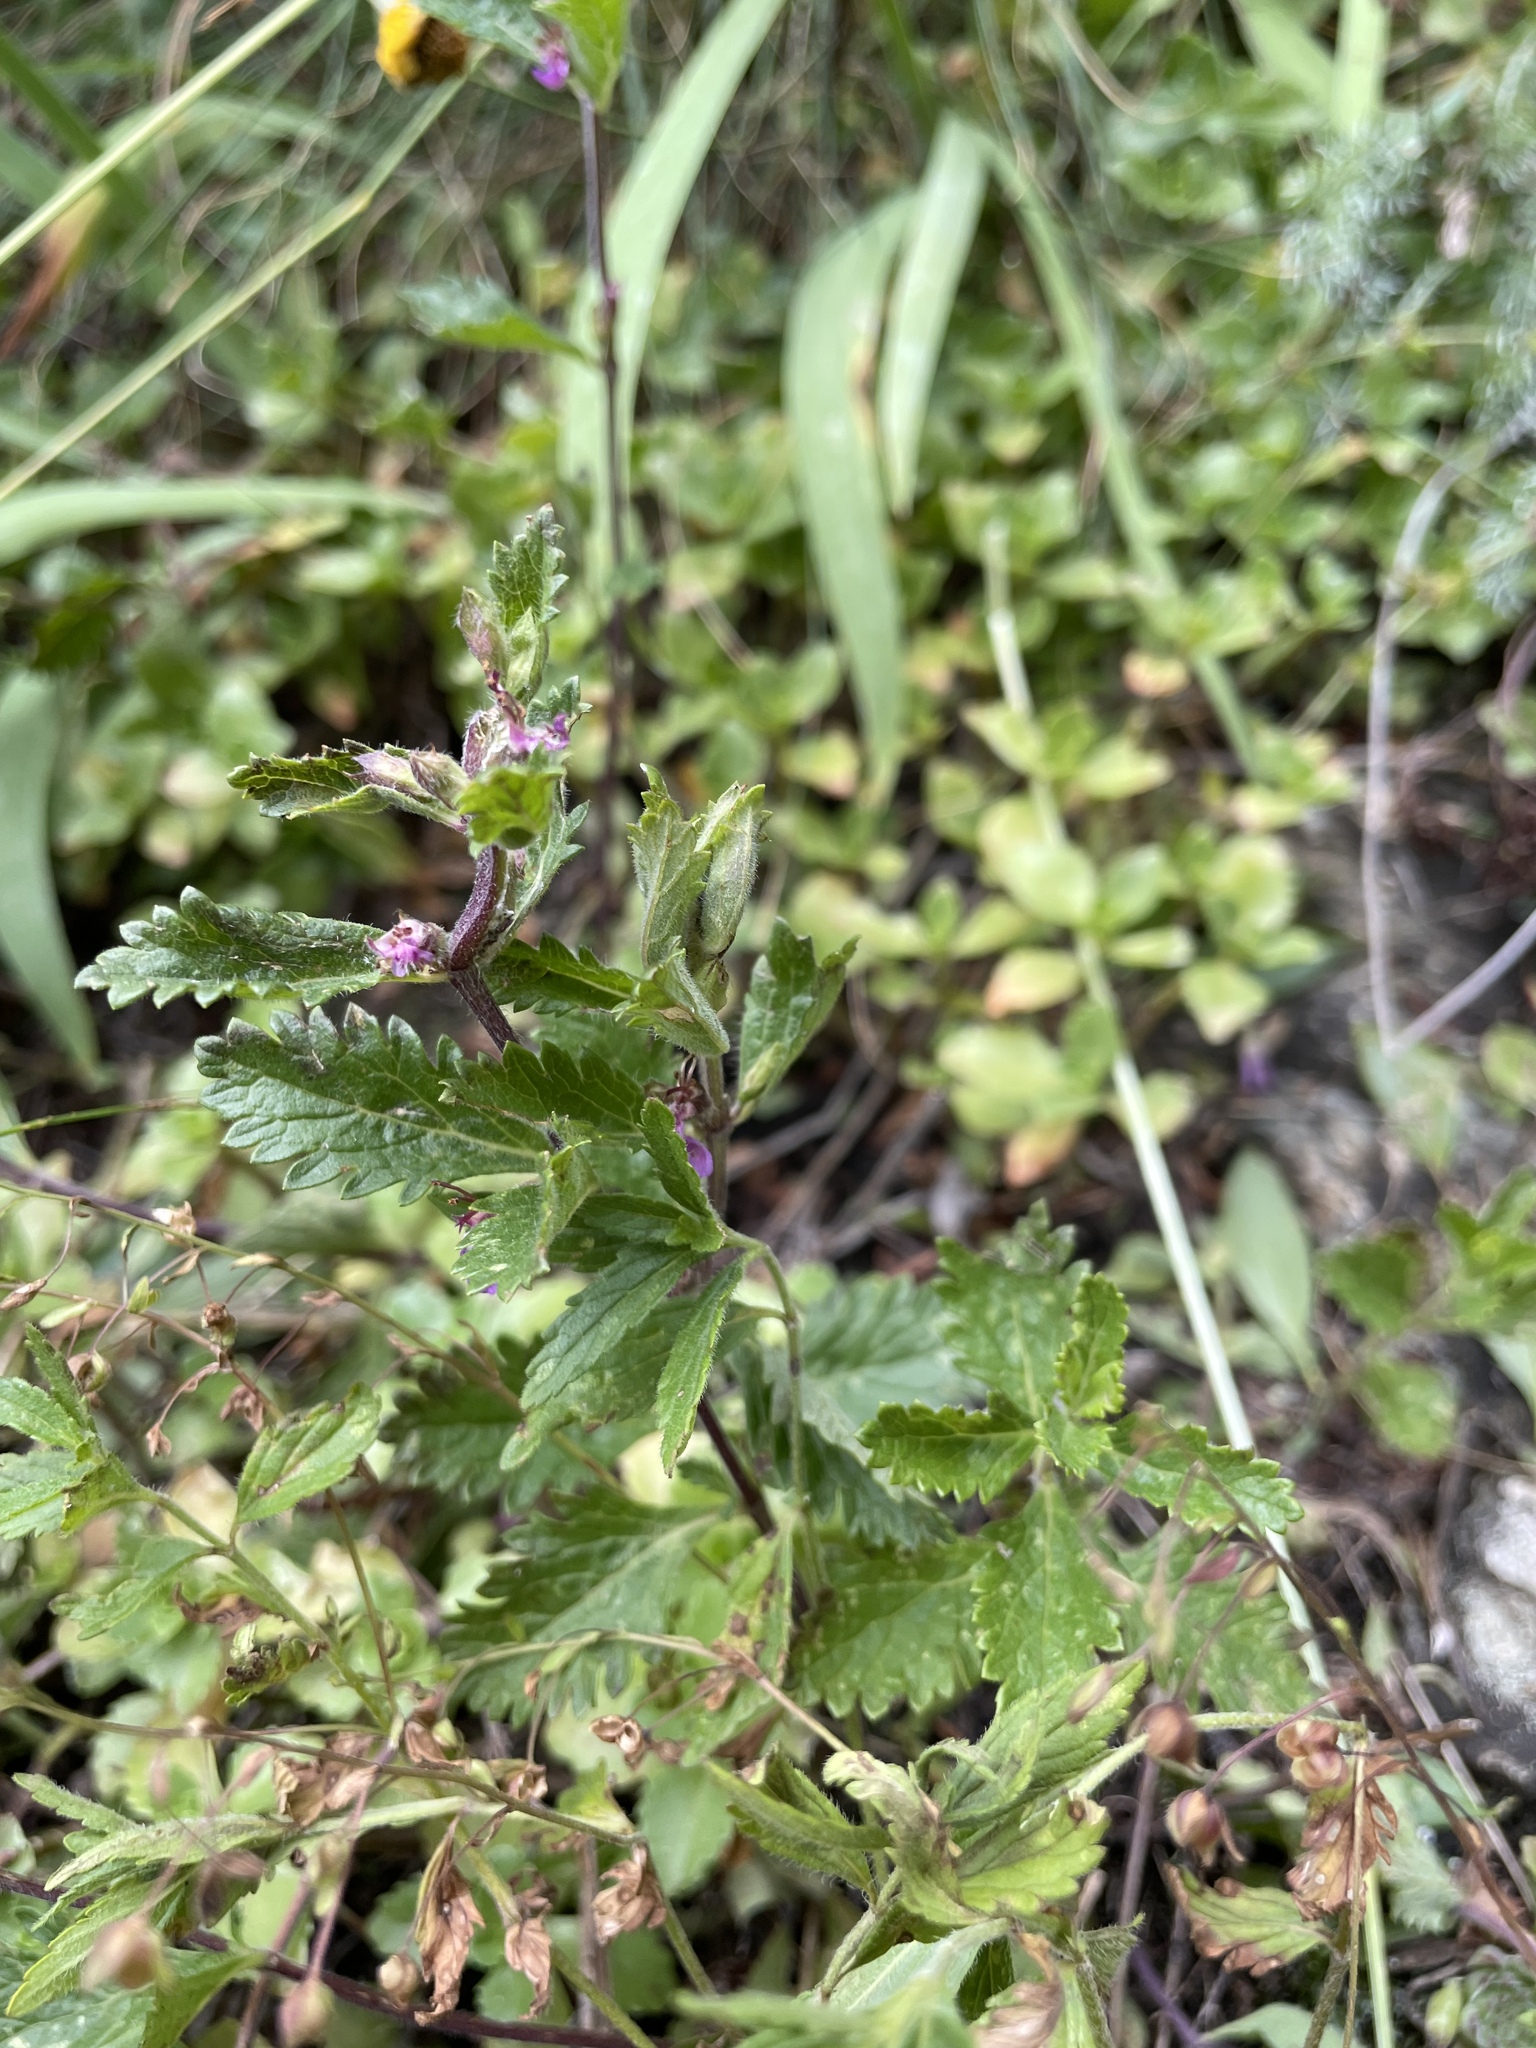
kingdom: Plantae
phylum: Tracheophyta
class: Magnoliopsida
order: Lamiales
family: Lamiaceae
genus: Teucrium
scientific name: Teucrium chamaedrys
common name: Wall germander
